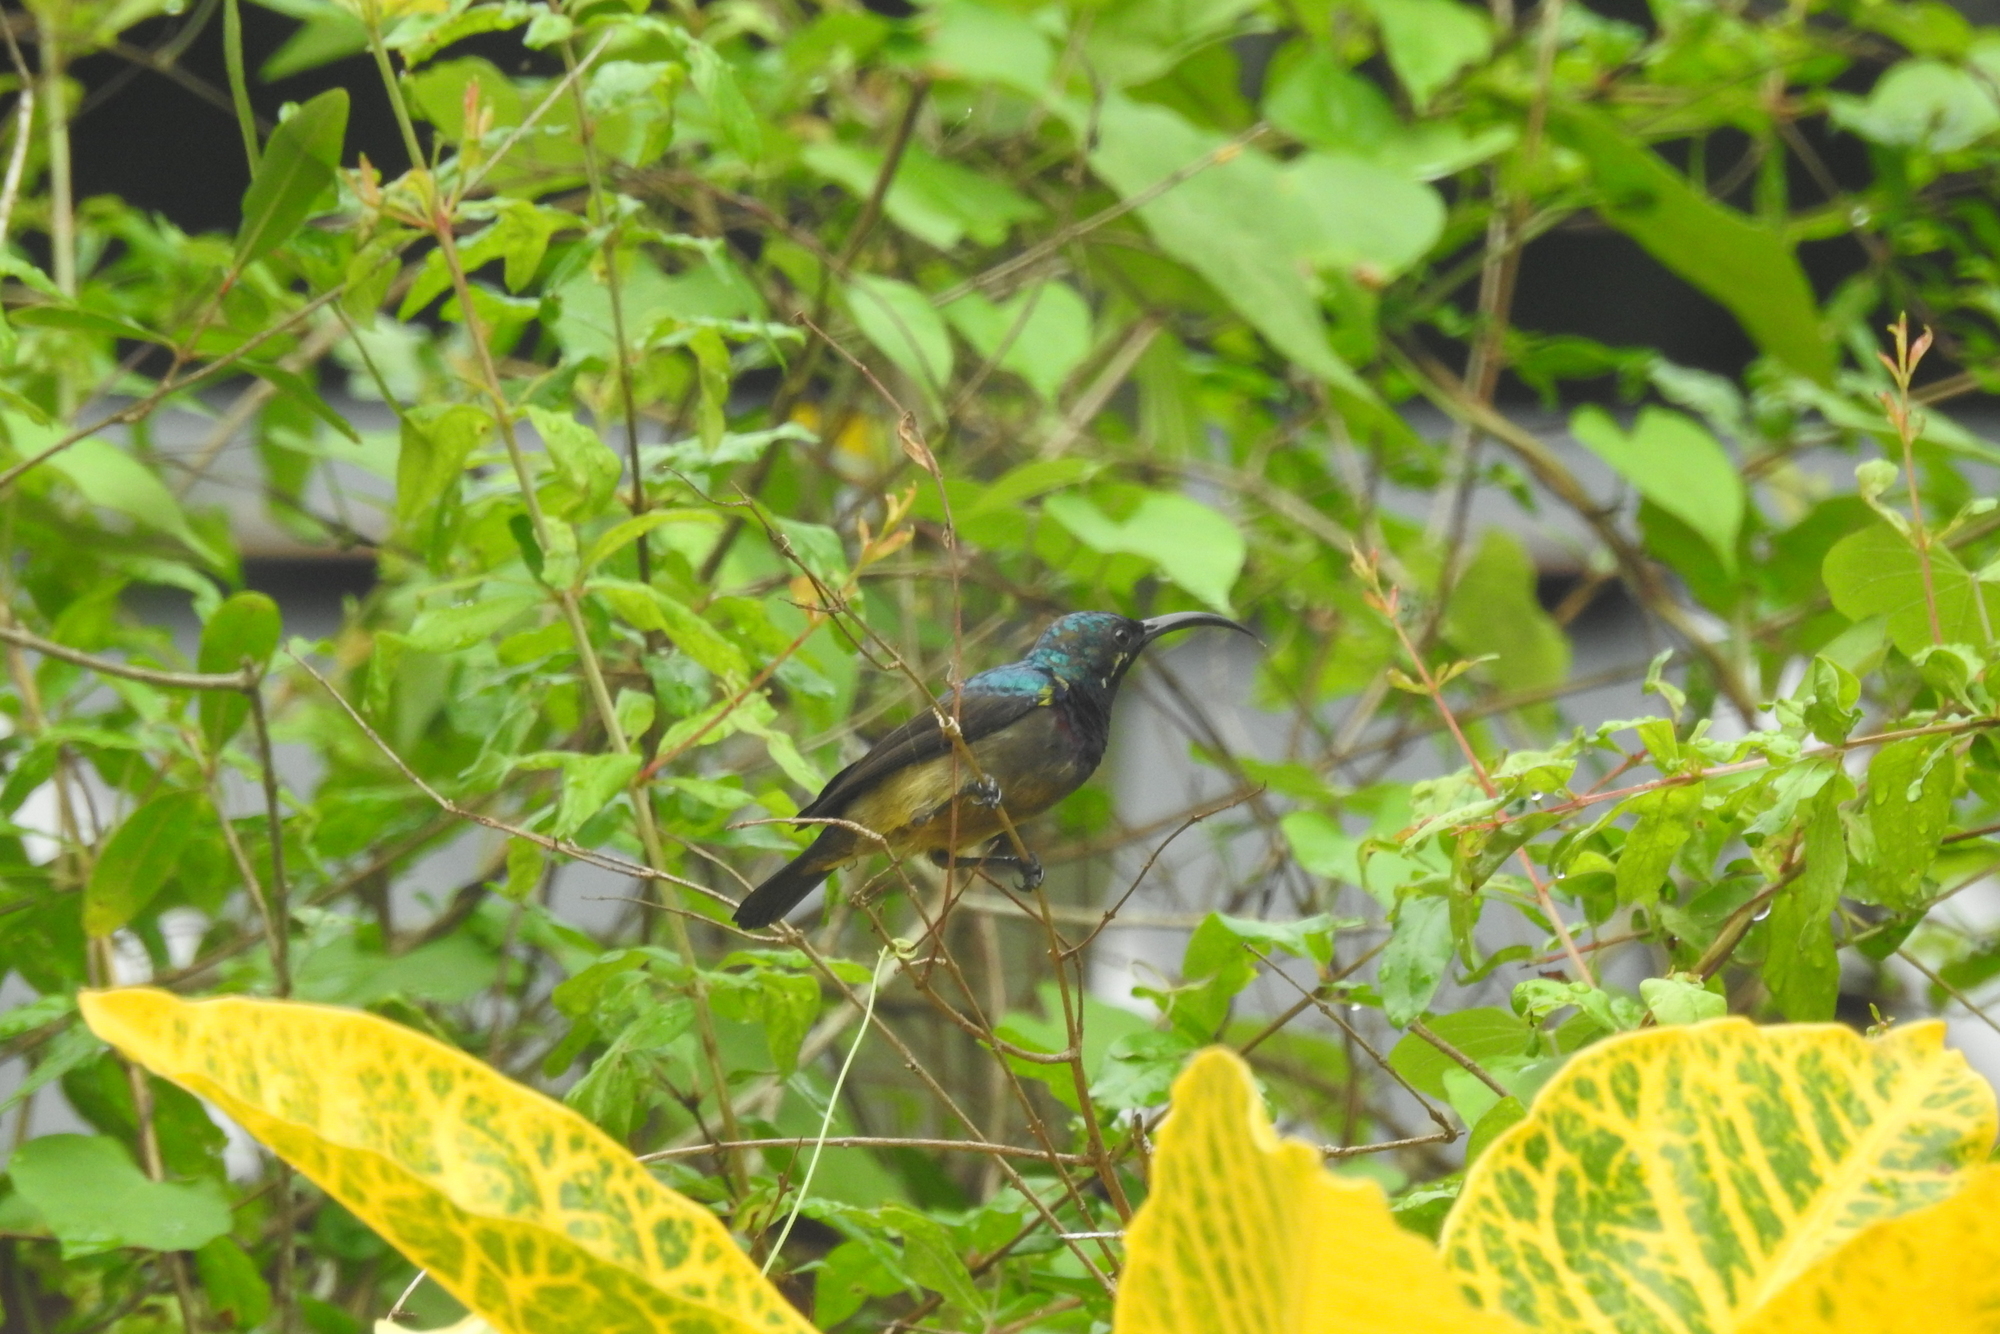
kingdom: Animalia
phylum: Chordata
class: Aves
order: Passeriformes
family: Nectariniidae
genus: Cinnyris
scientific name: Cinnyris lotenius
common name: Loten's sunbird
